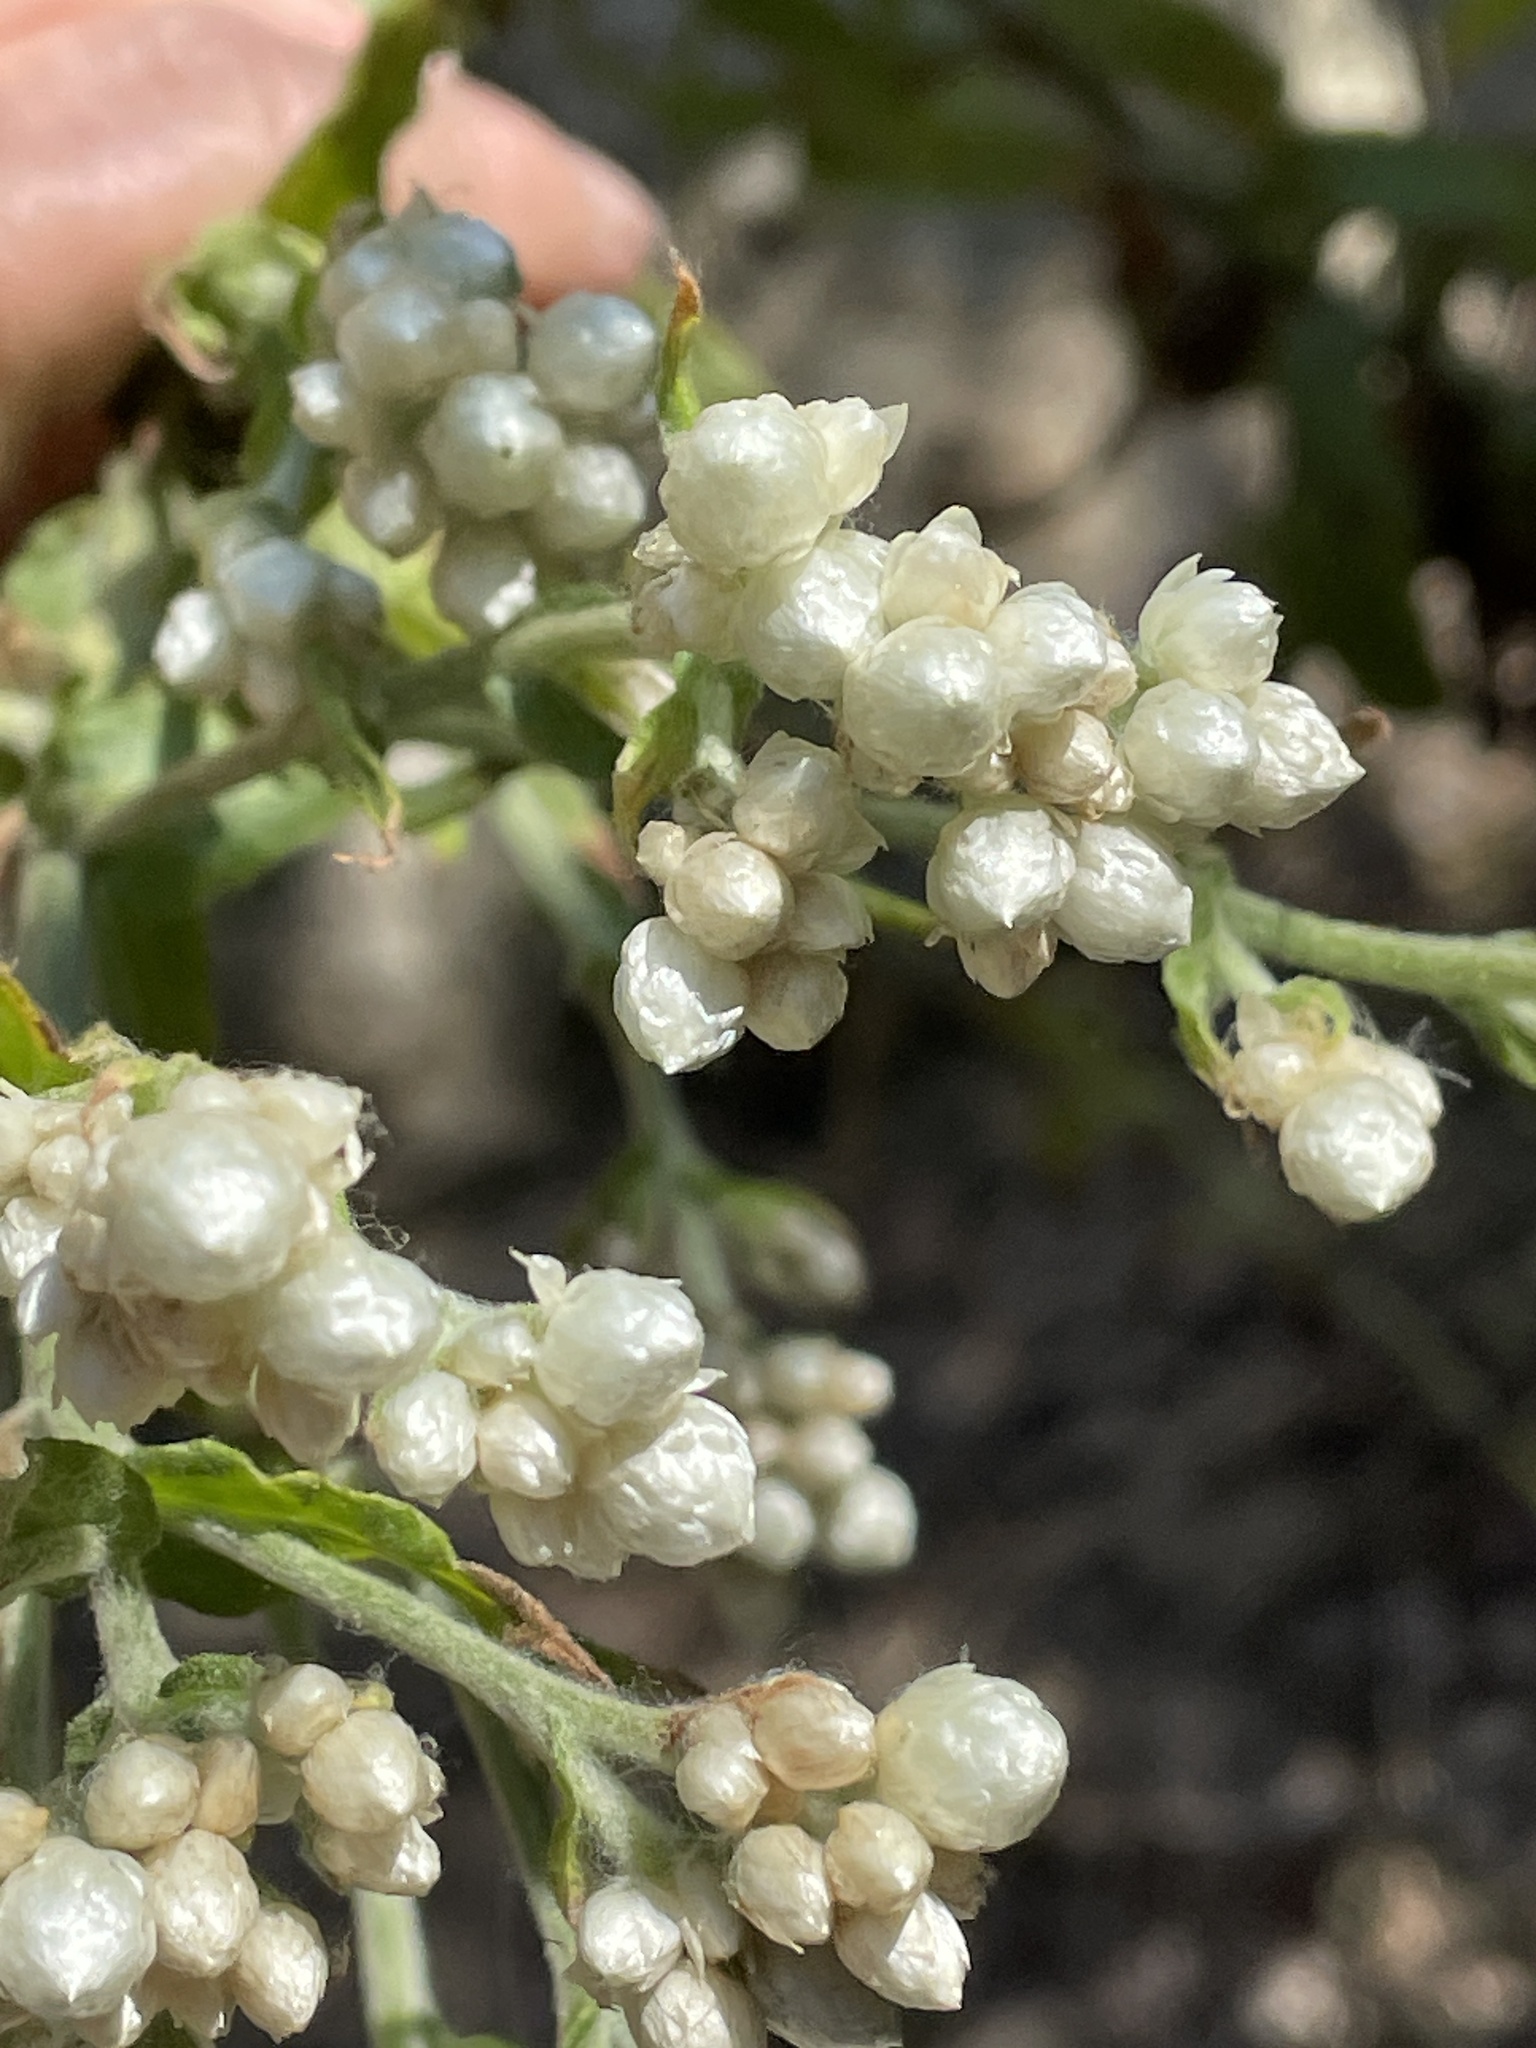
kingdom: Plantae
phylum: Tracheophyta
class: Magnoliopsida
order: Asterales
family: Asteraceae
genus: Pseudognaphalium
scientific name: Pseudognaphalium californicum
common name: California rabbit-tobacco
